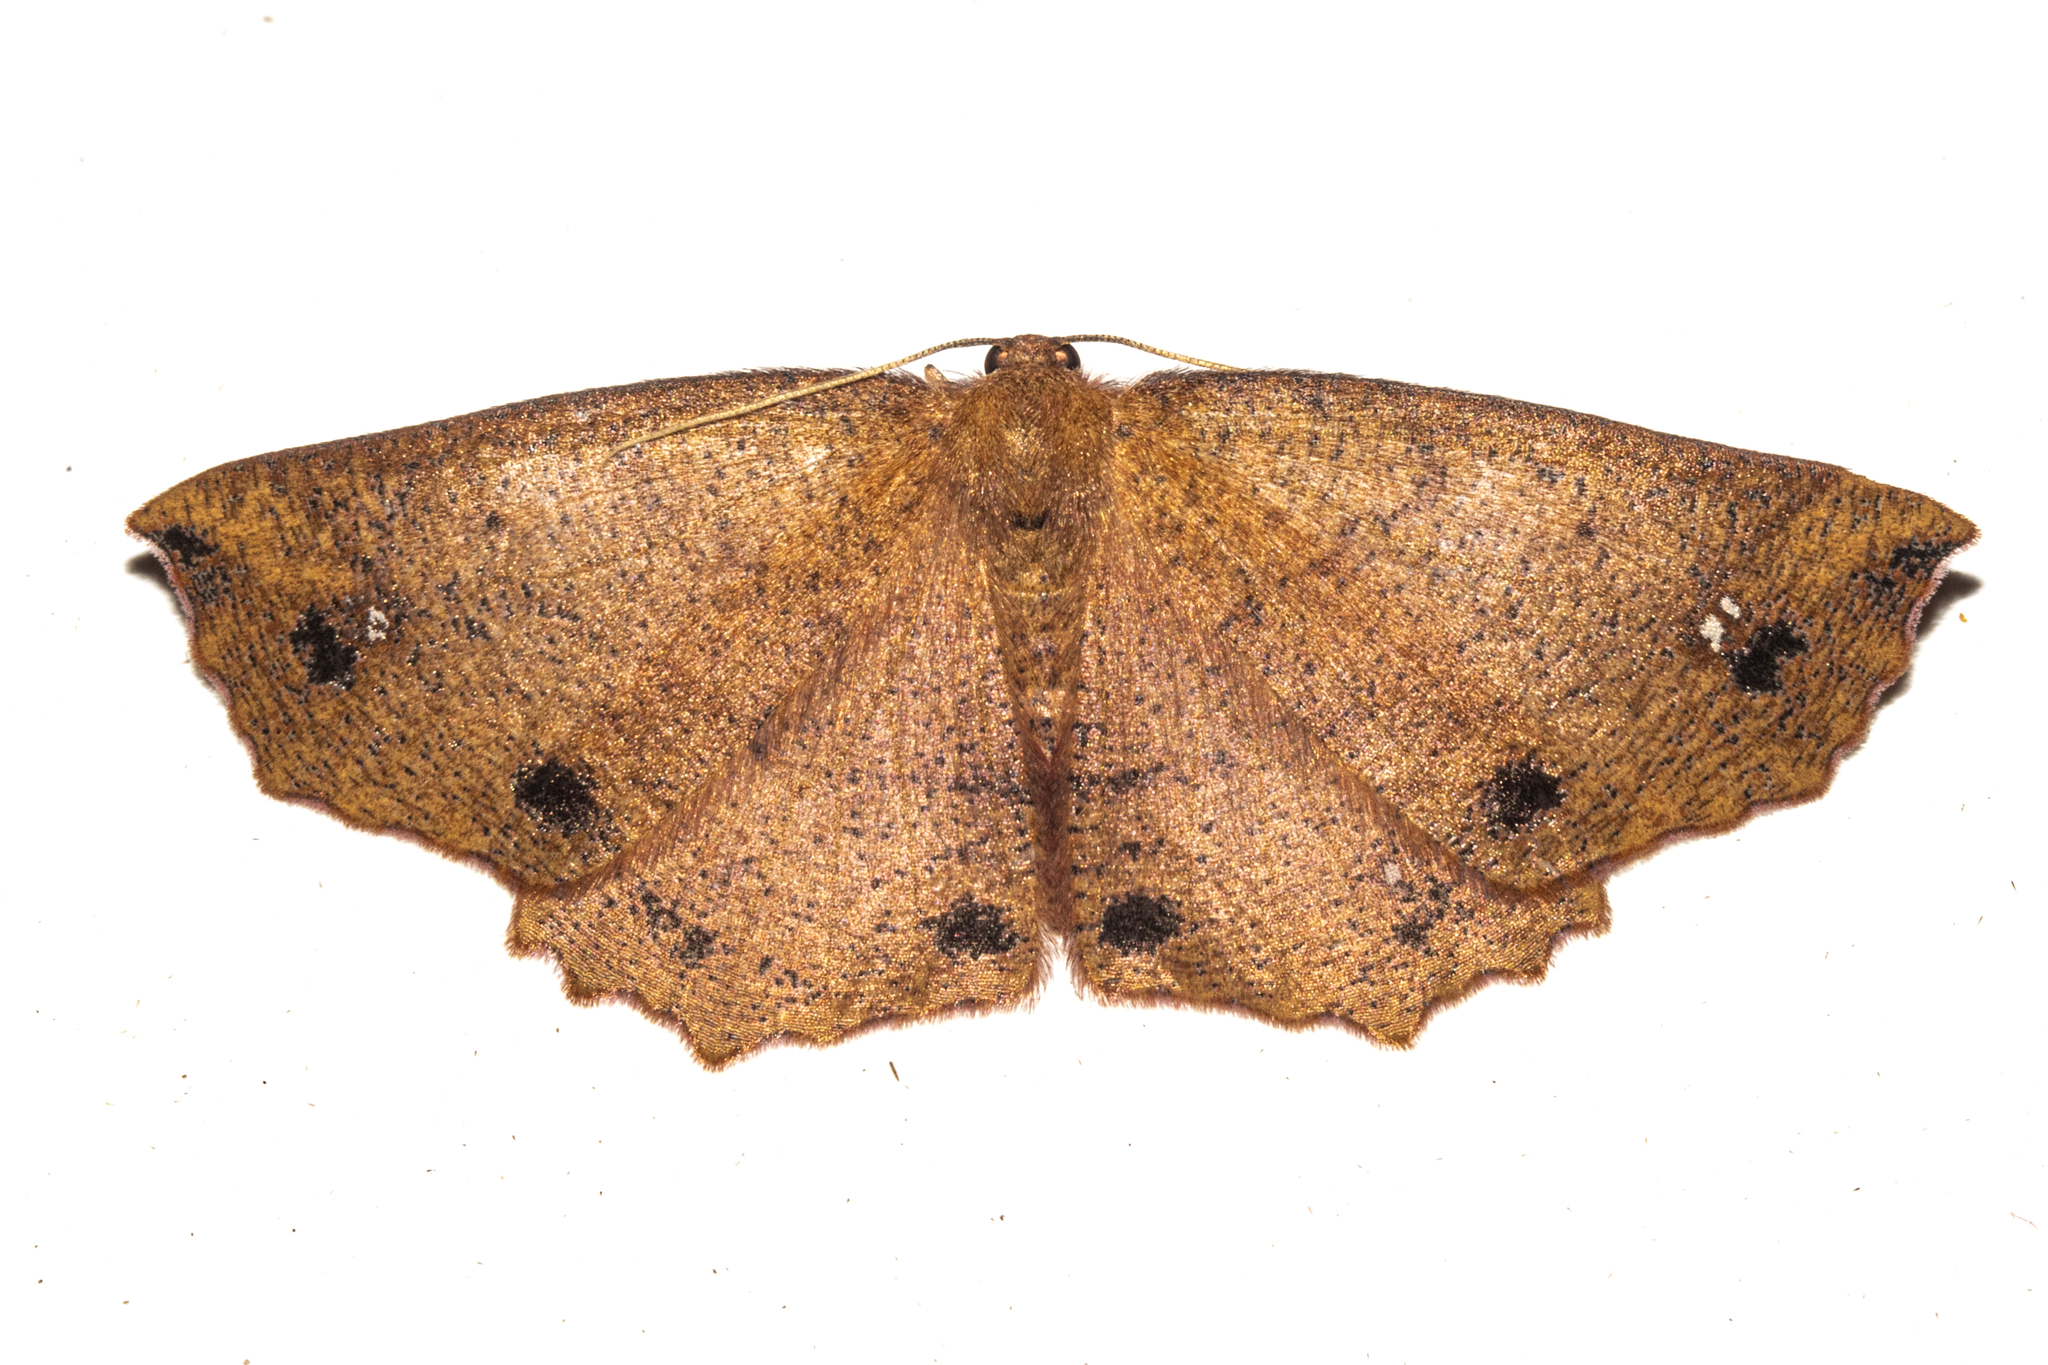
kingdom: Animalia
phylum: Arthropoda
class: Insecta
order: Lepidoptera
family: Geometridae
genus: Xyridacma
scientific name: Xyridacma ustaria
